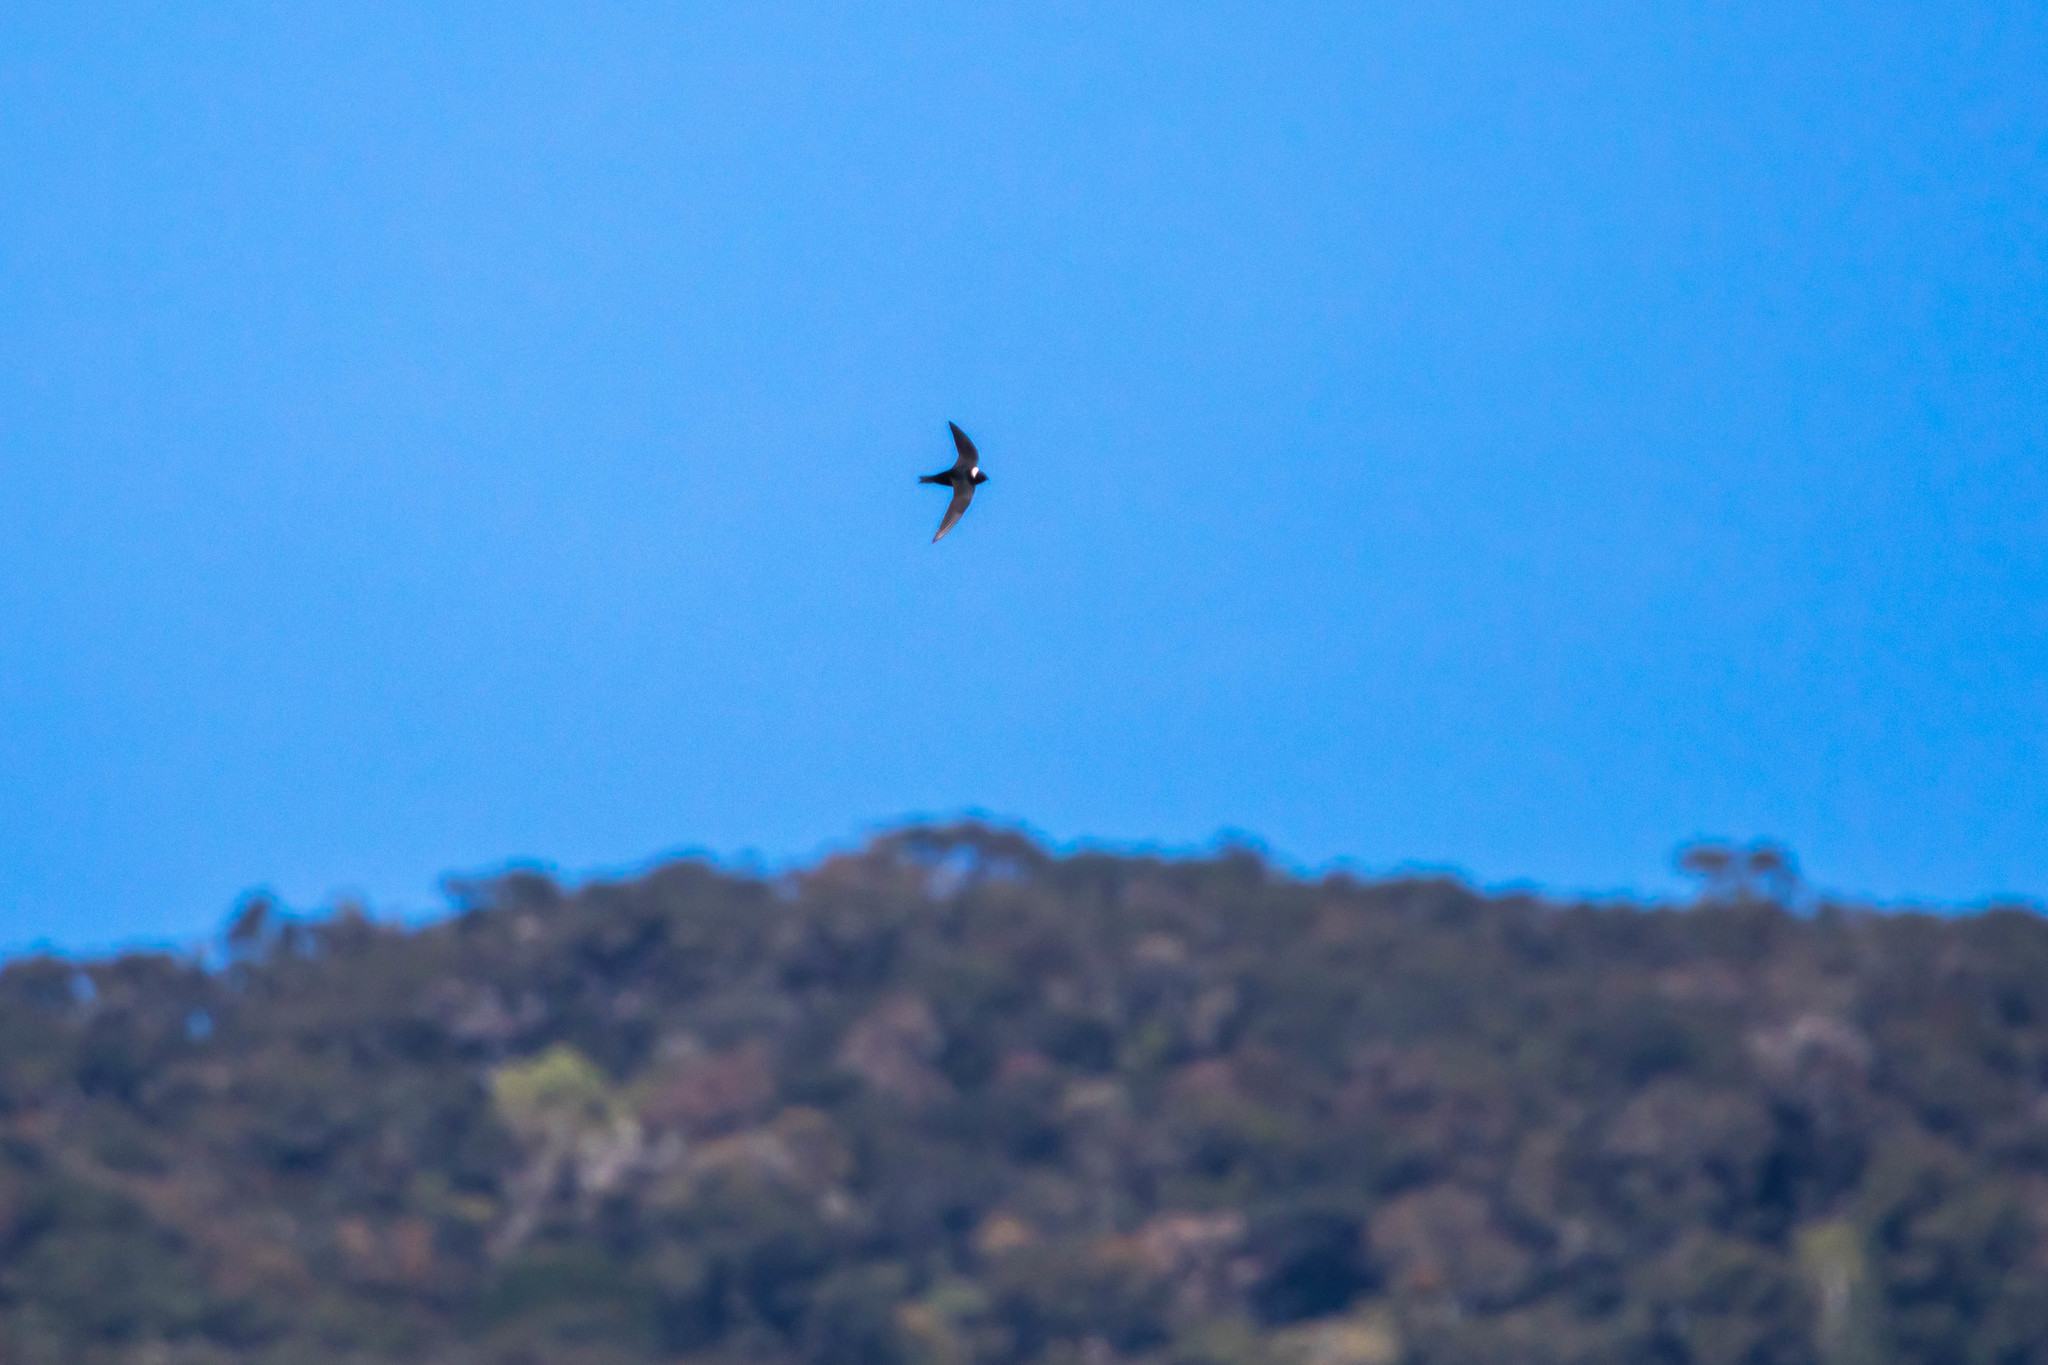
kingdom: Animalia
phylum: Chordata
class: Aves
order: Apodiformes
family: Apodidae
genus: Streptoprocne
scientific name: Streptoprocne zonaris
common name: White-collared swift
